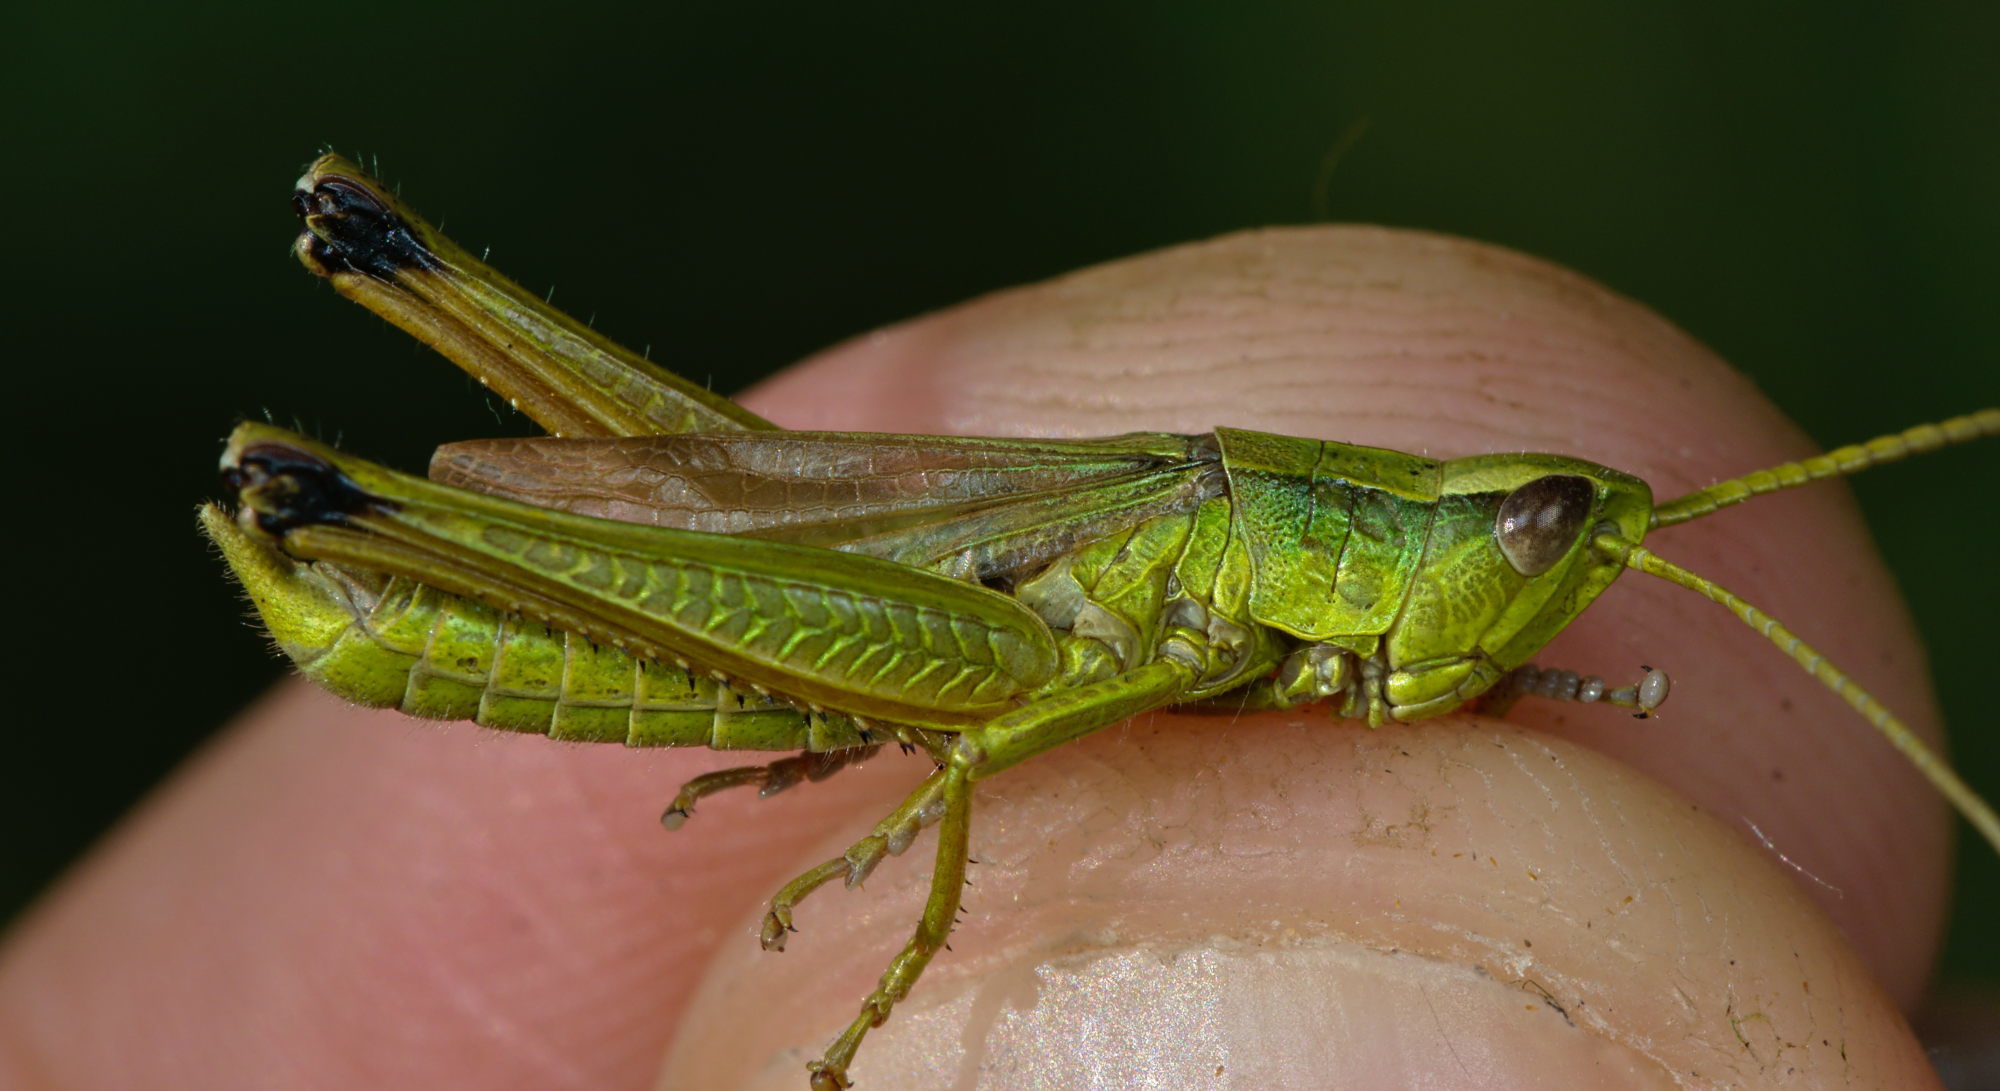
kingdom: Animalia
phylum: Arthropoda
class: Insecta
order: Orthoptera
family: Acrididae
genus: Chrysochraon
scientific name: Chrysochraon dispar
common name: Large gold grasshopper
